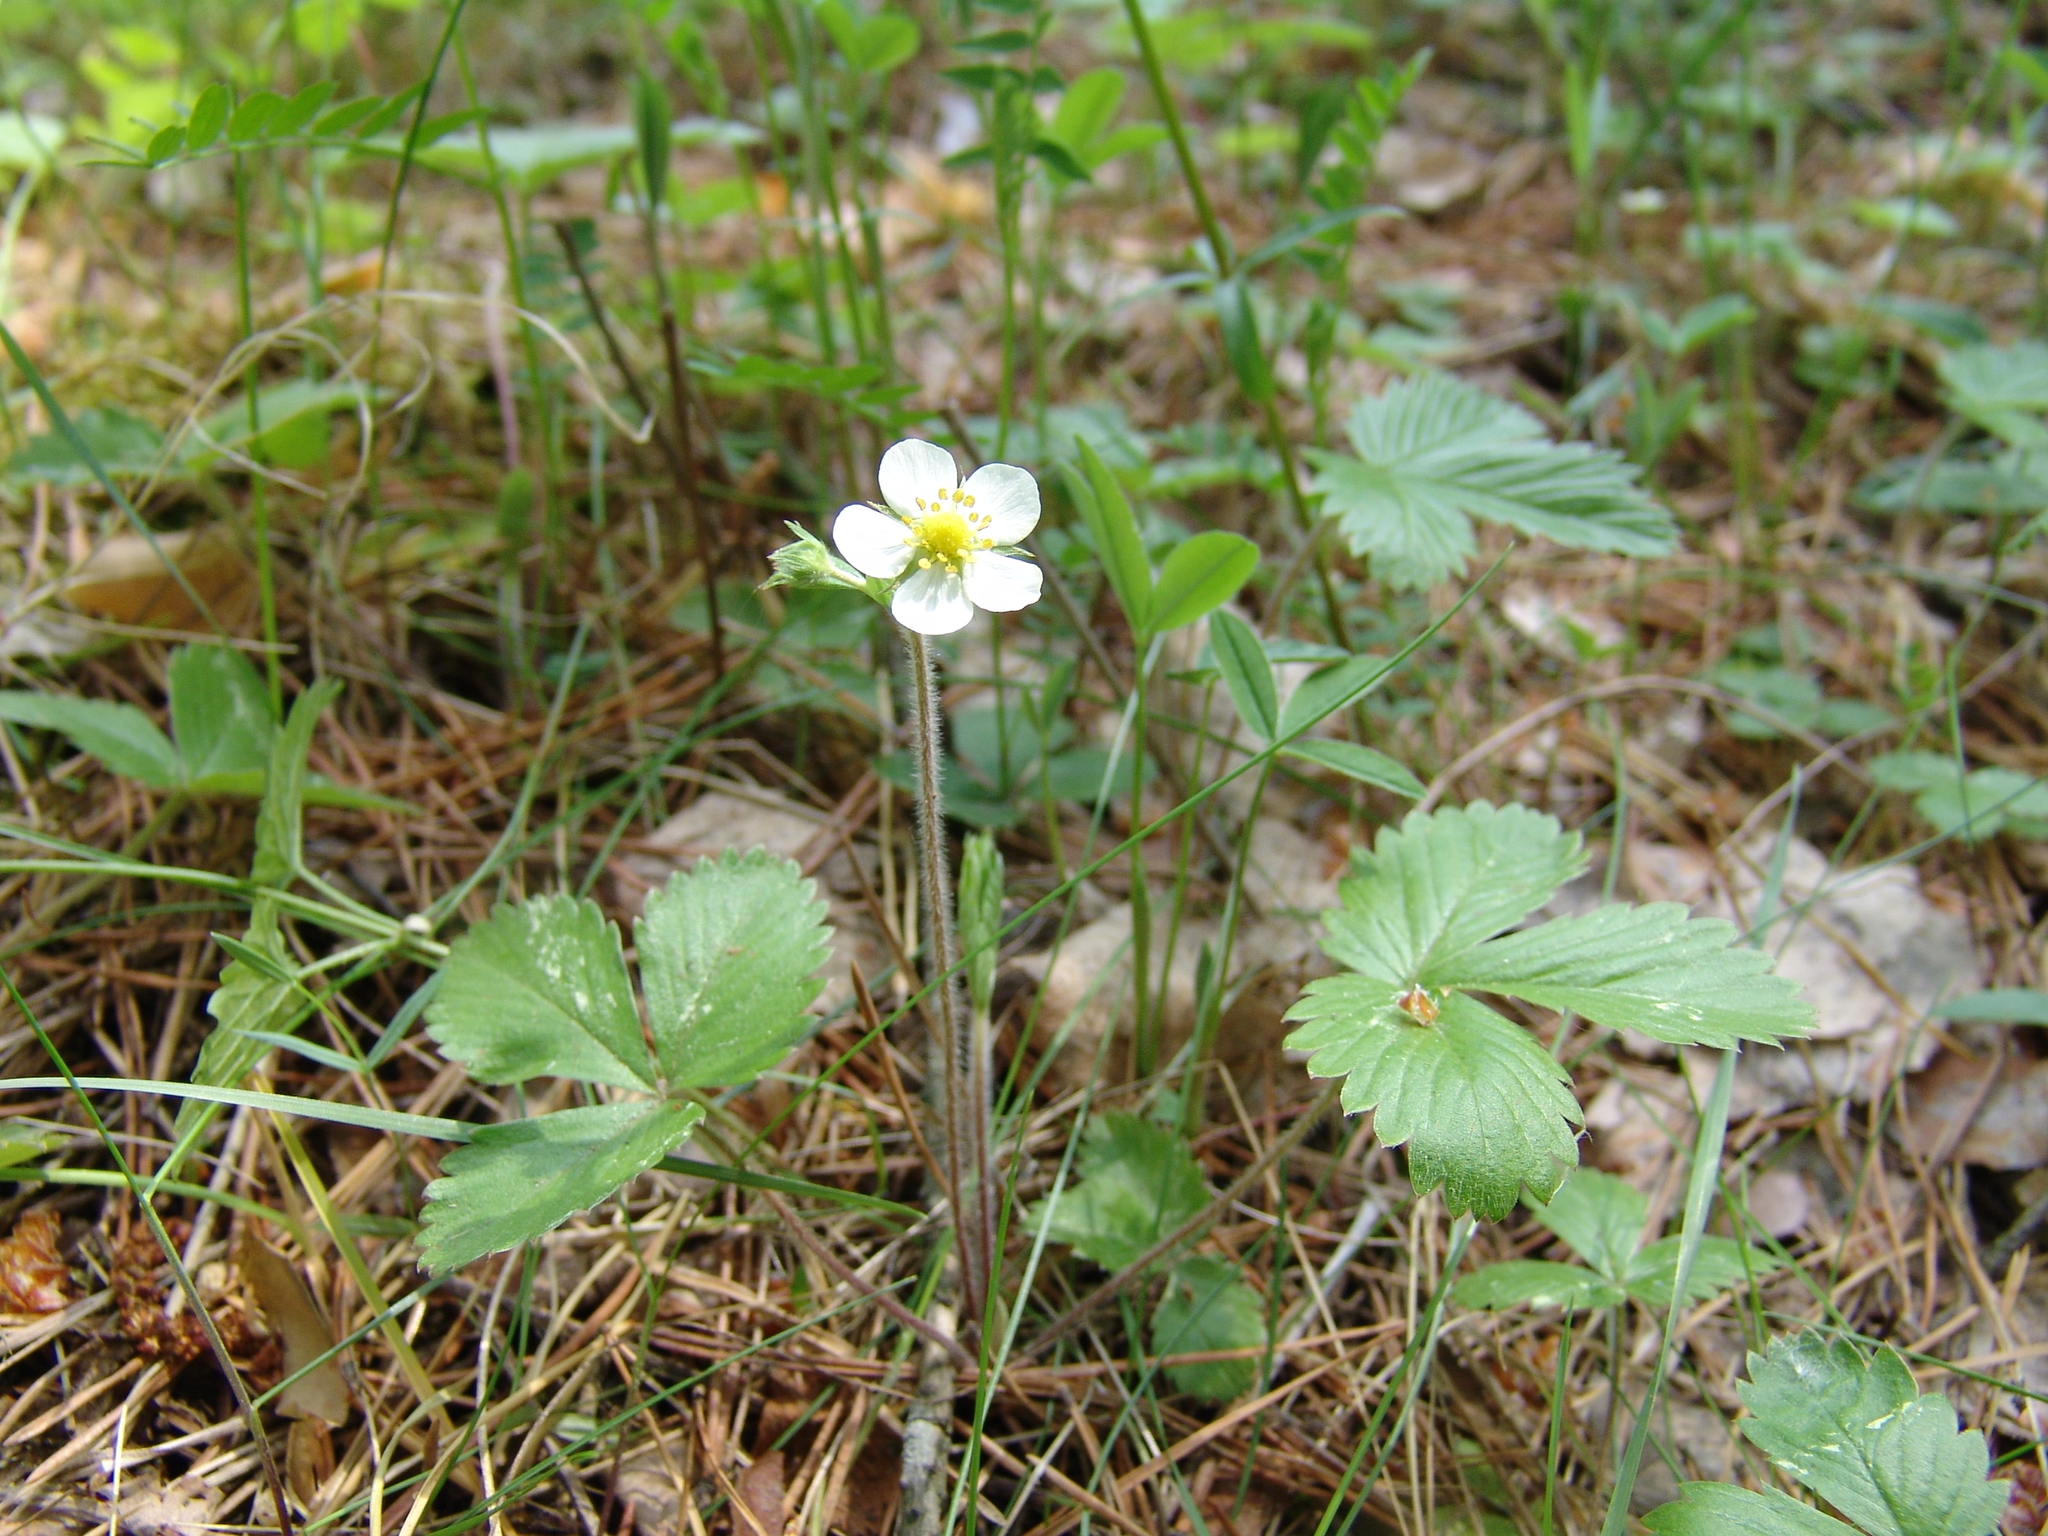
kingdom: Plantae
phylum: Tracheophyta
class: Magnoliopsida
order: Rosales
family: Rosaceae
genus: Fragaria
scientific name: Fragaria vesca
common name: Wild strawberry
